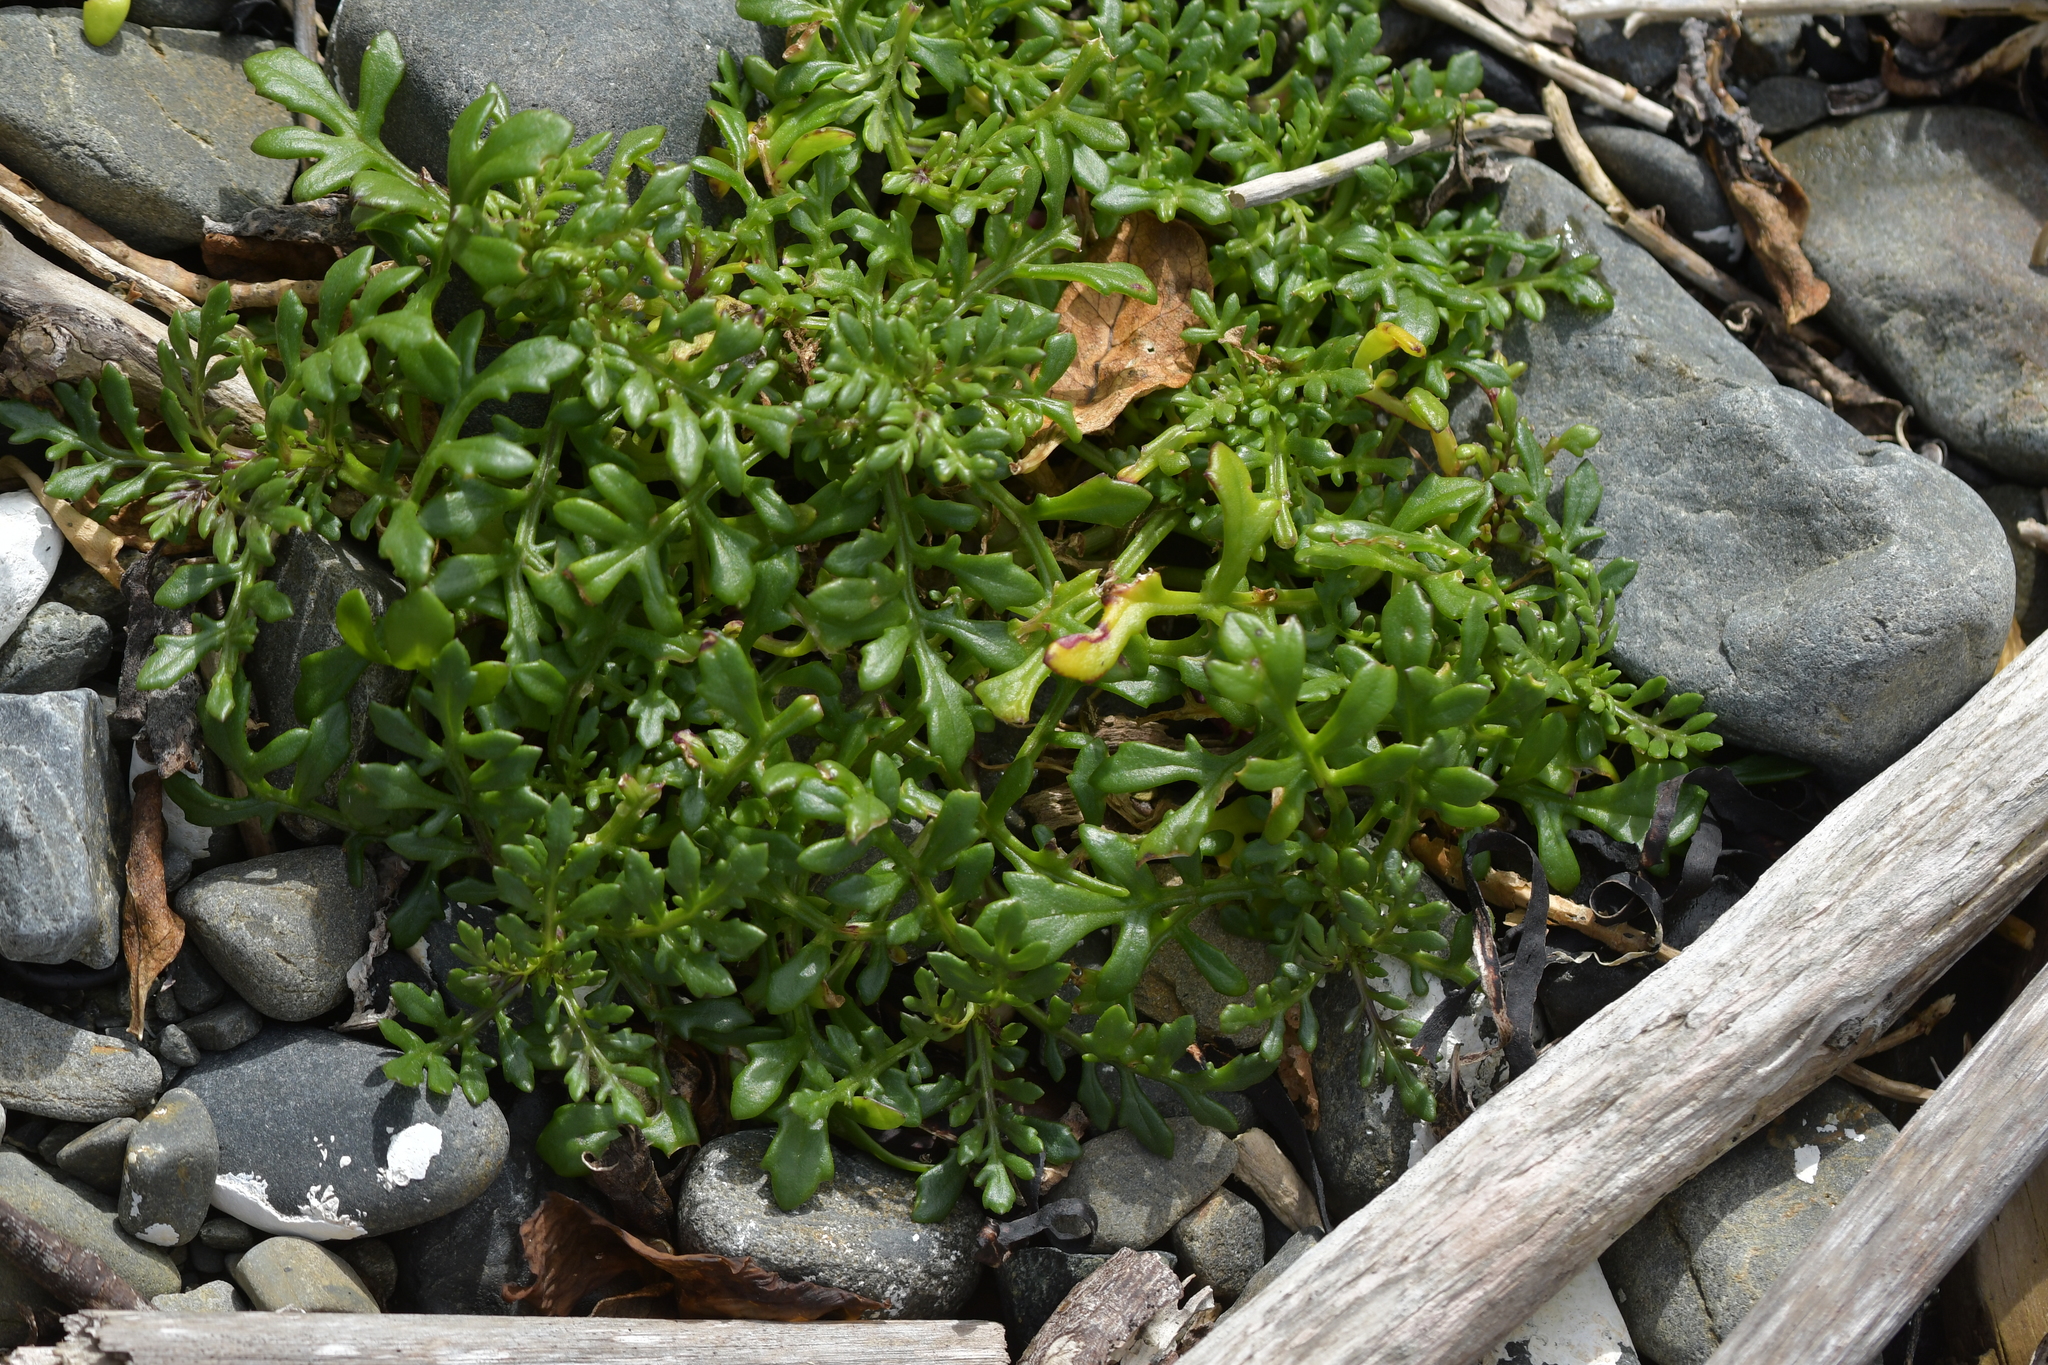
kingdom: Plantae
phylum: Tracheophyta
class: Magnoliopsida
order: Asterales
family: Asteraceae
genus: Senecio
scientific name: Senecio lautus
